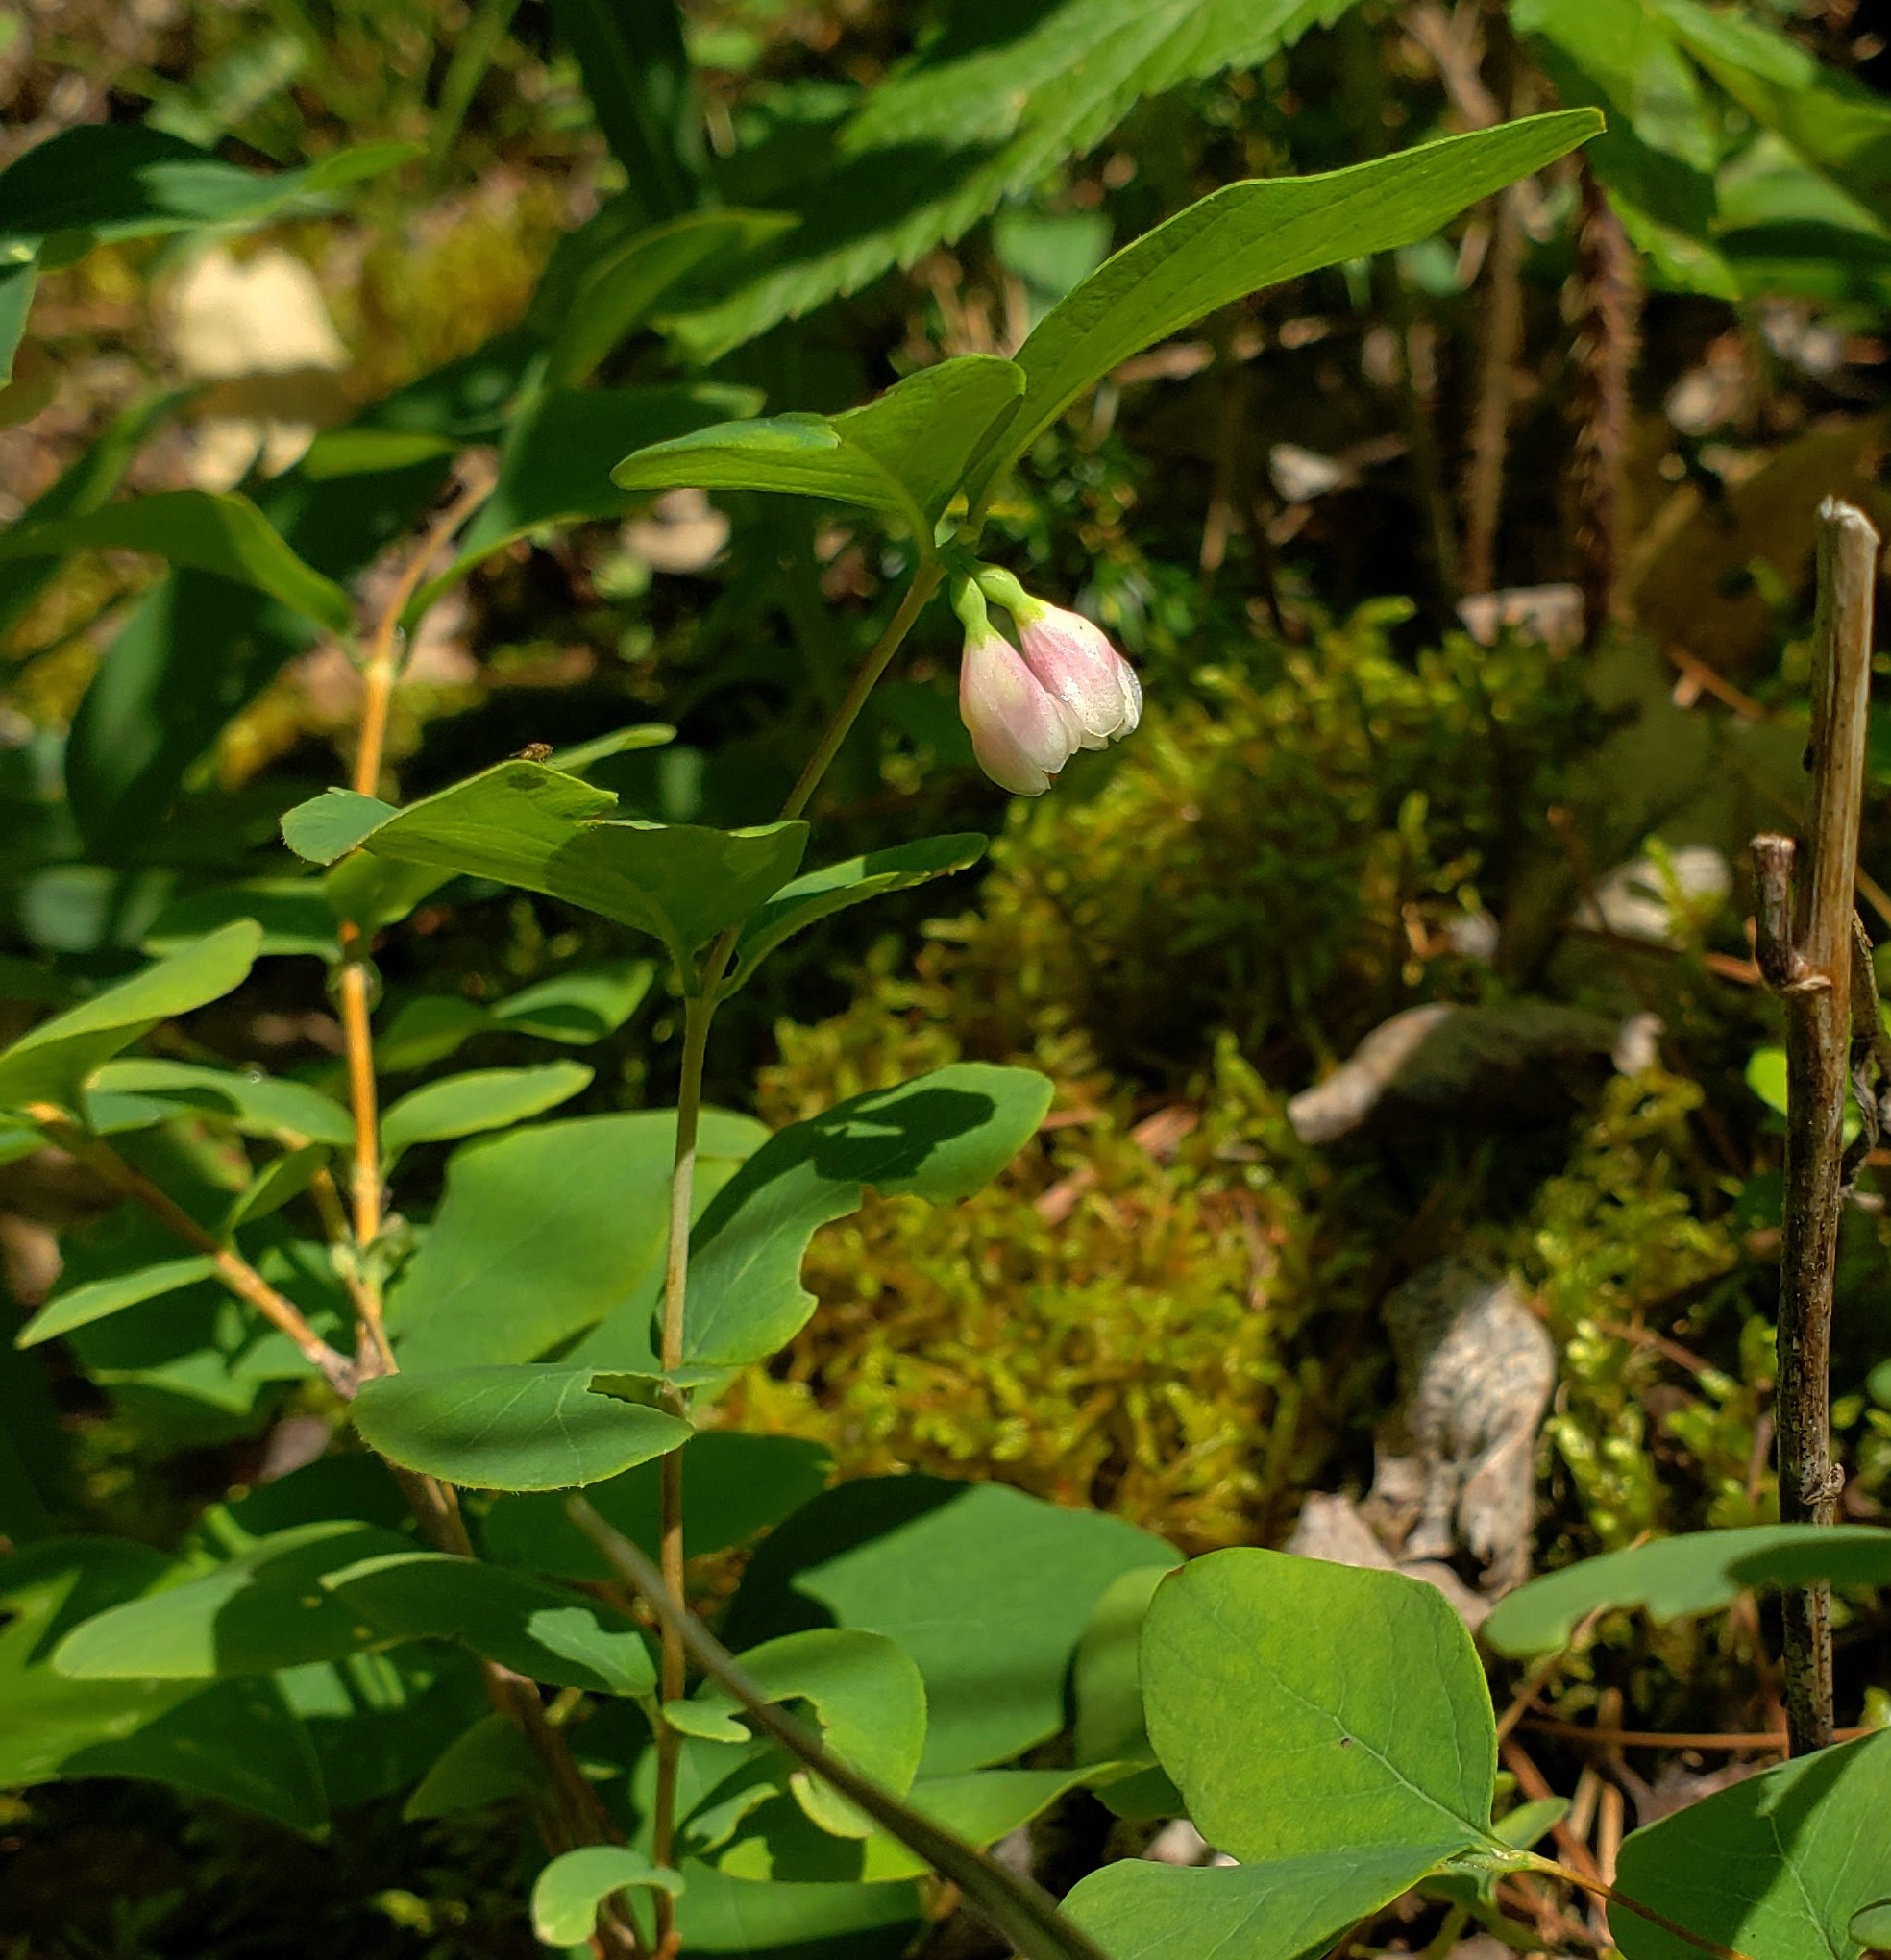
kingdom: Plantae
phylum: Tracheophyta
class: Magnoliopsida
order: Dipsacales
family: Caprifoliaceae
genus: Symphoricarpos
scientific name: Symphoricarpos albus
